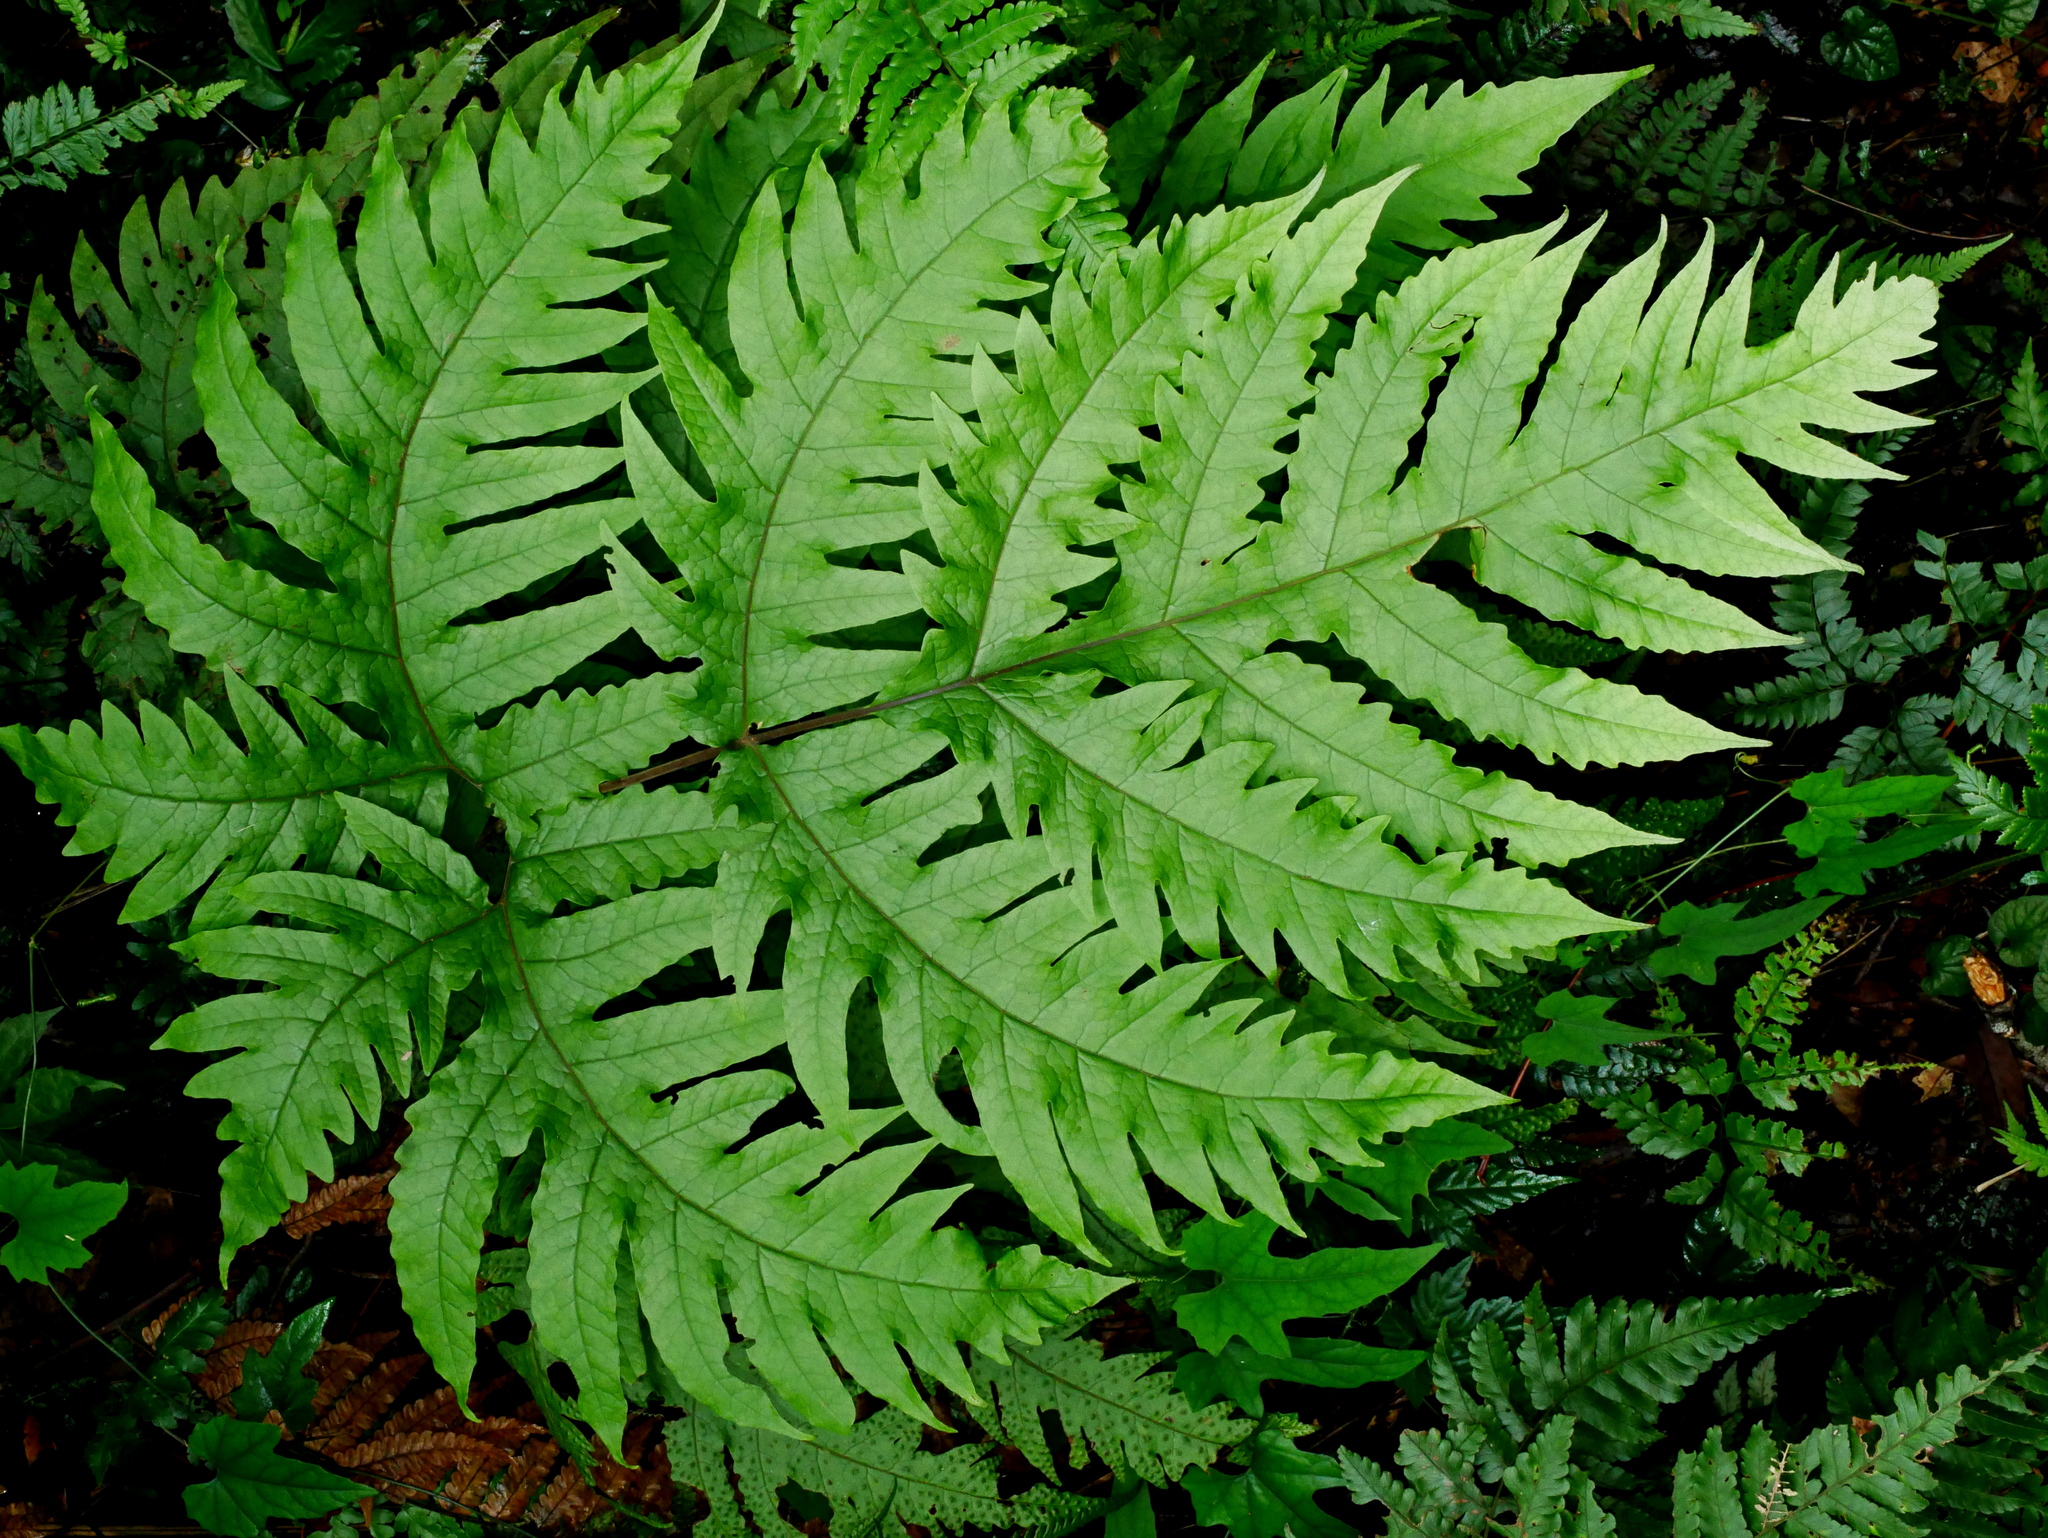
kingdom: Plantae
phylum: Tracheophyta
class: Polypodiopsida
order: Polypodiales
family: Tectariaceae
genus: Tectaria
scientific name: Tectaria griffithii
